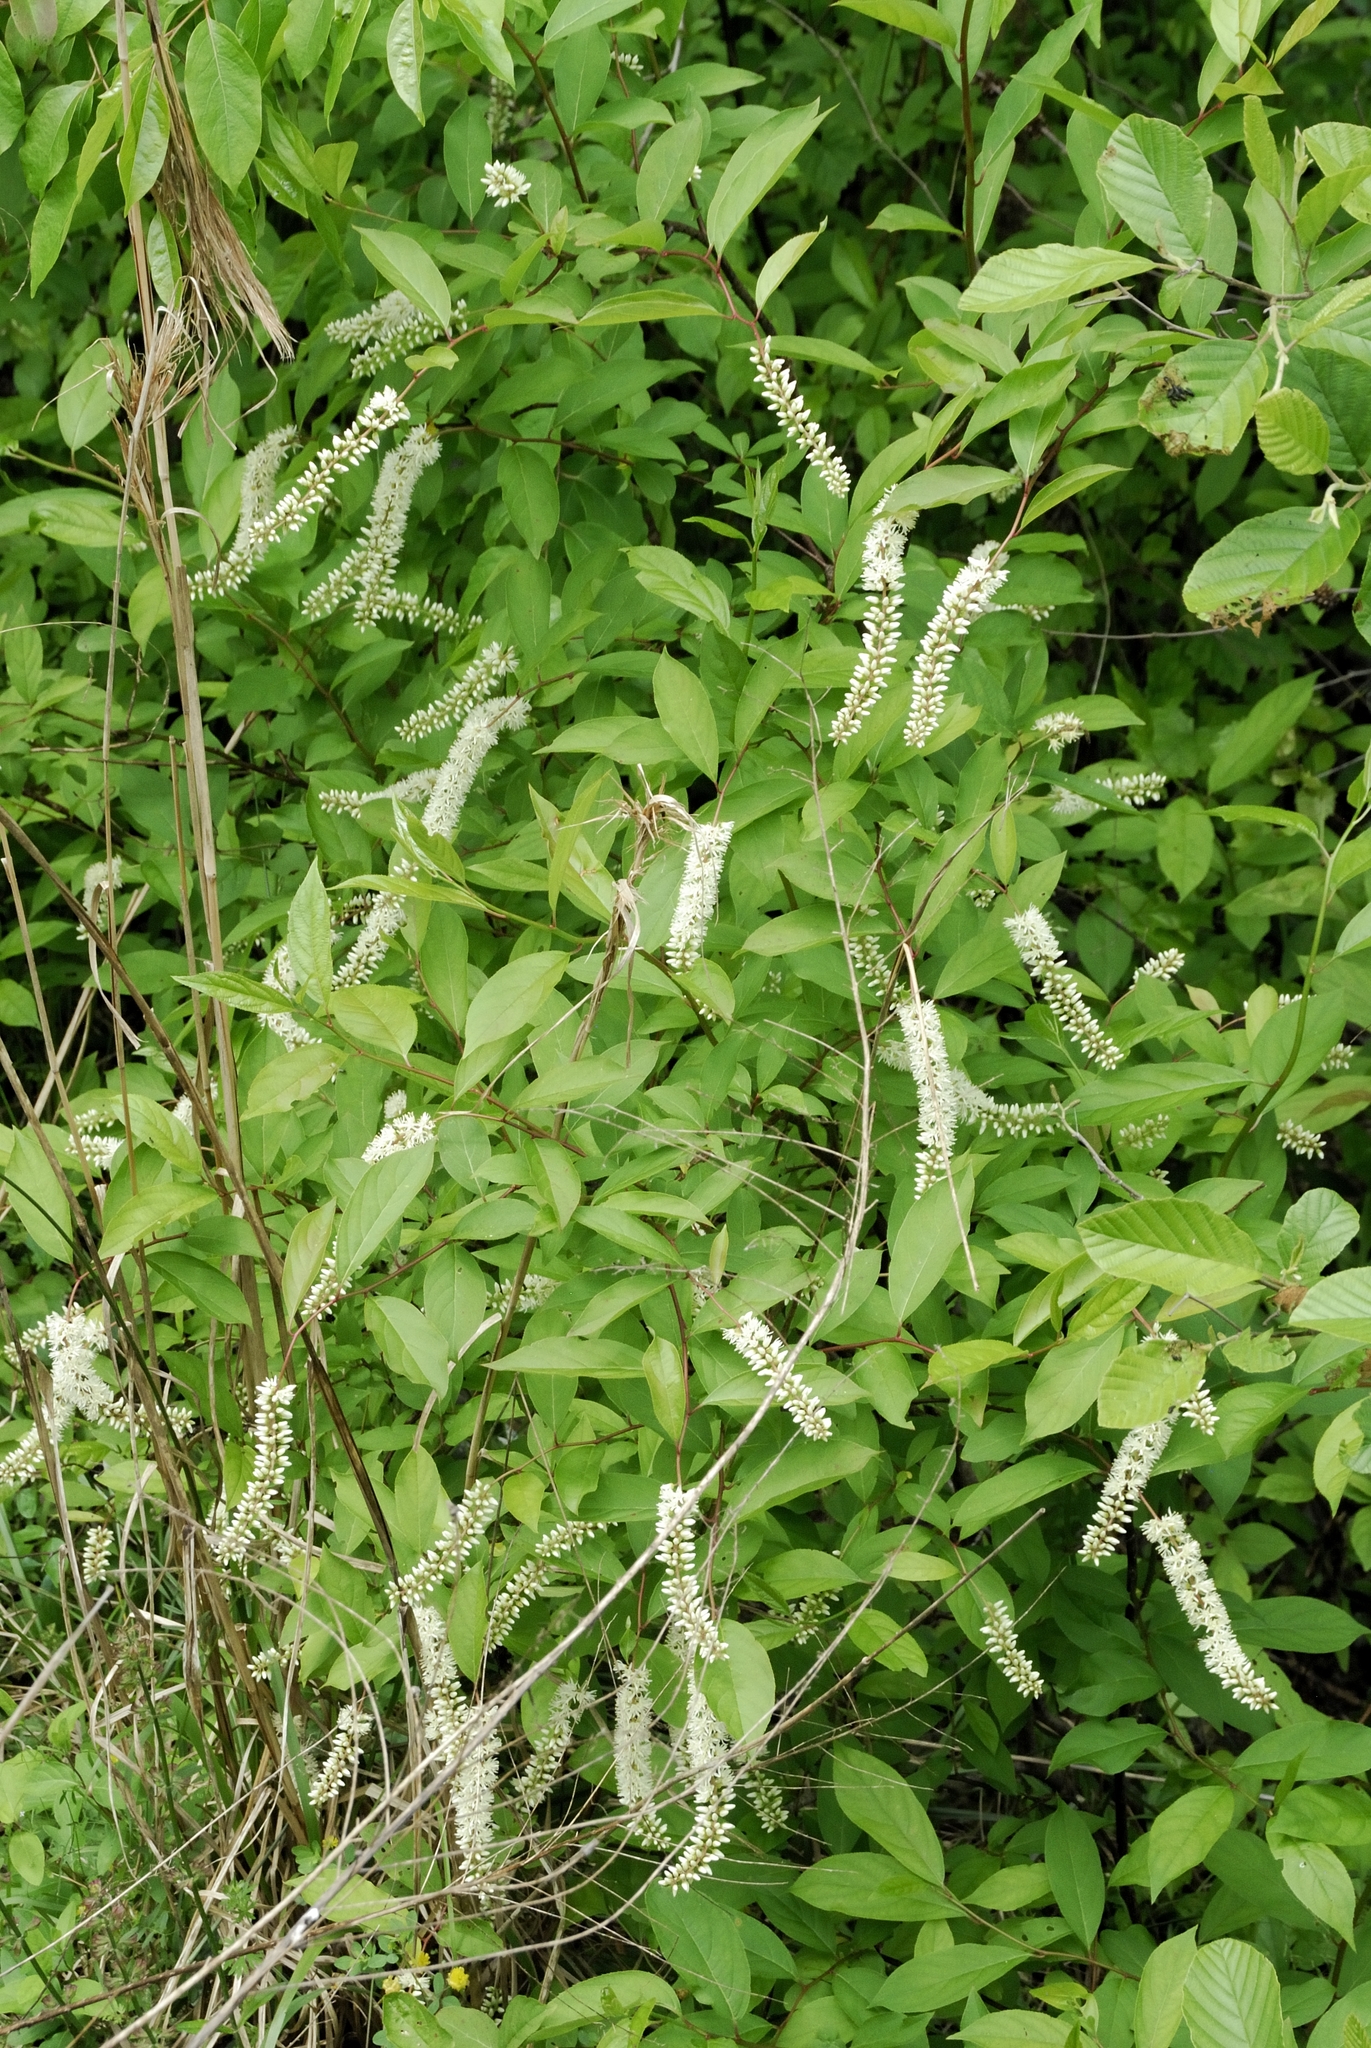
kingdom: Plantae
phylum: Tracheophyta
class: Magnoliopsida
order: Saxifragales
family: Iteaceae
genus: Itea
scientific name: Itea virginica
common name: Sweetspire
